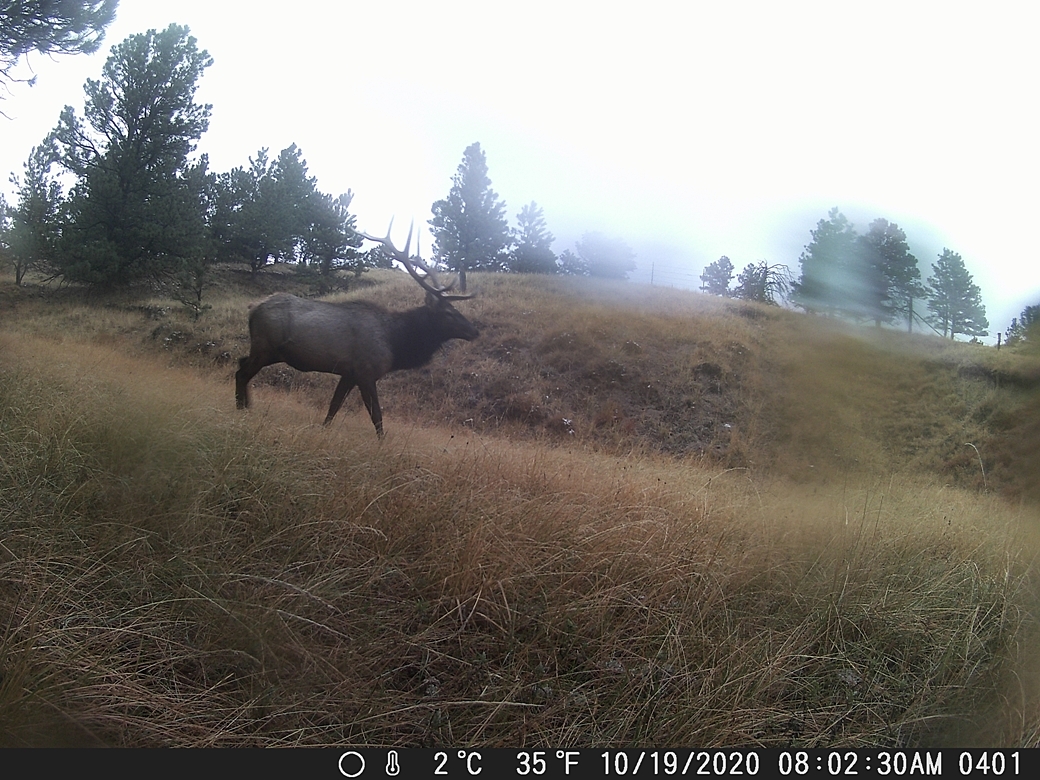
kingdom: Animalia
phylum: Chordata
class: Mammalia
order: Artiodactyla
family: Cervidae
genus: Cervus
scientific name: Cervus elaphus
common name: Red deer
